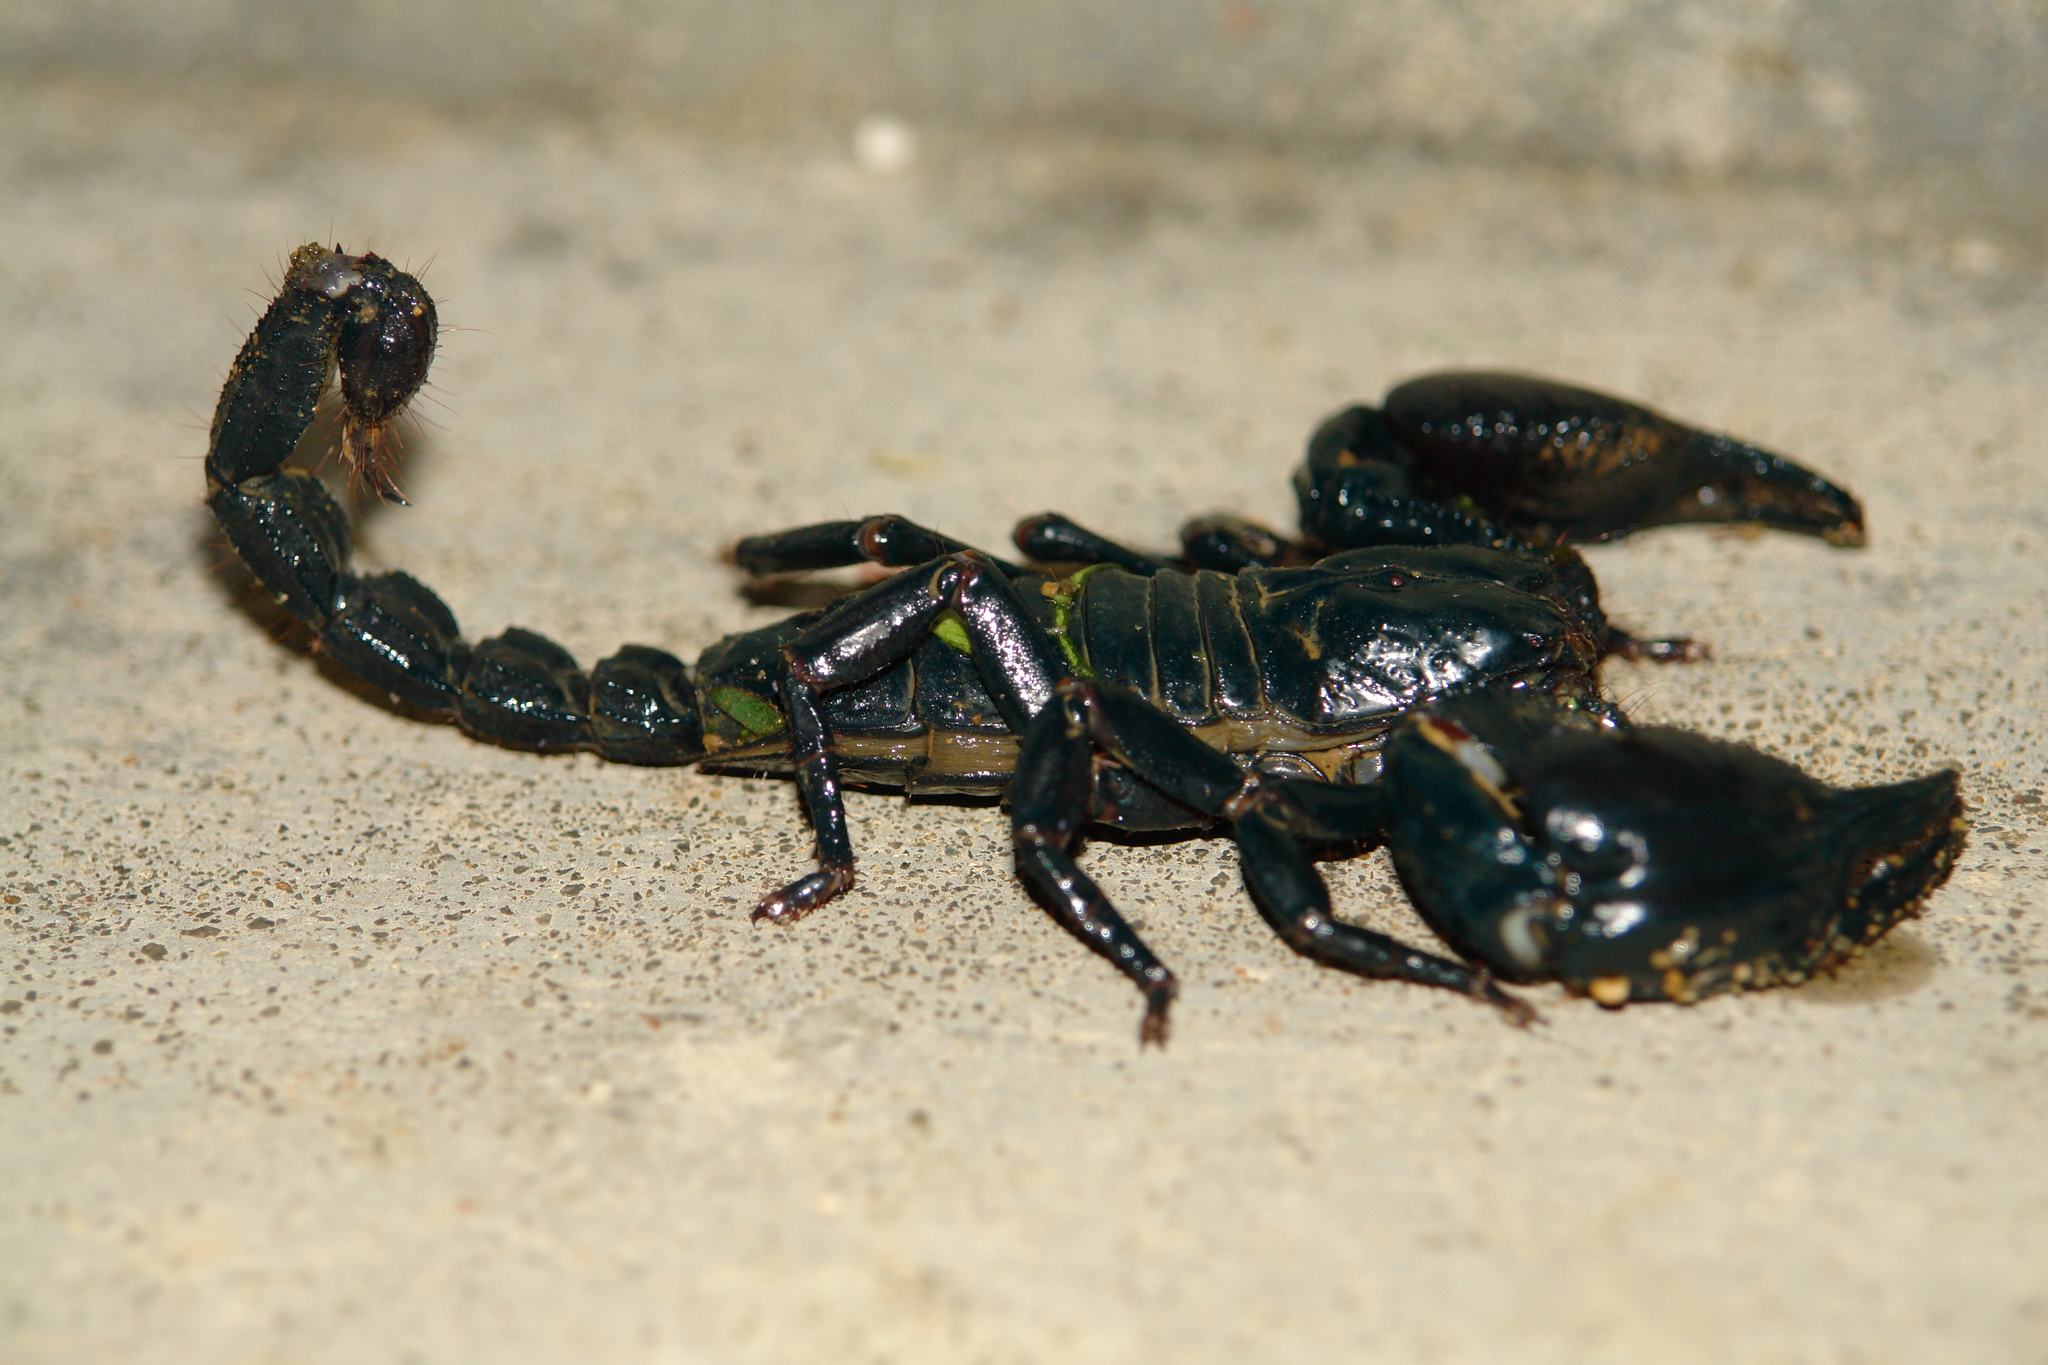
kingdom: Animalia
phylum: Arthropoda
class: Arachnida
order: Scorpiones
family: Scorpionidae
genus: Heterometrus
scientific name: Heterometrus silenus
